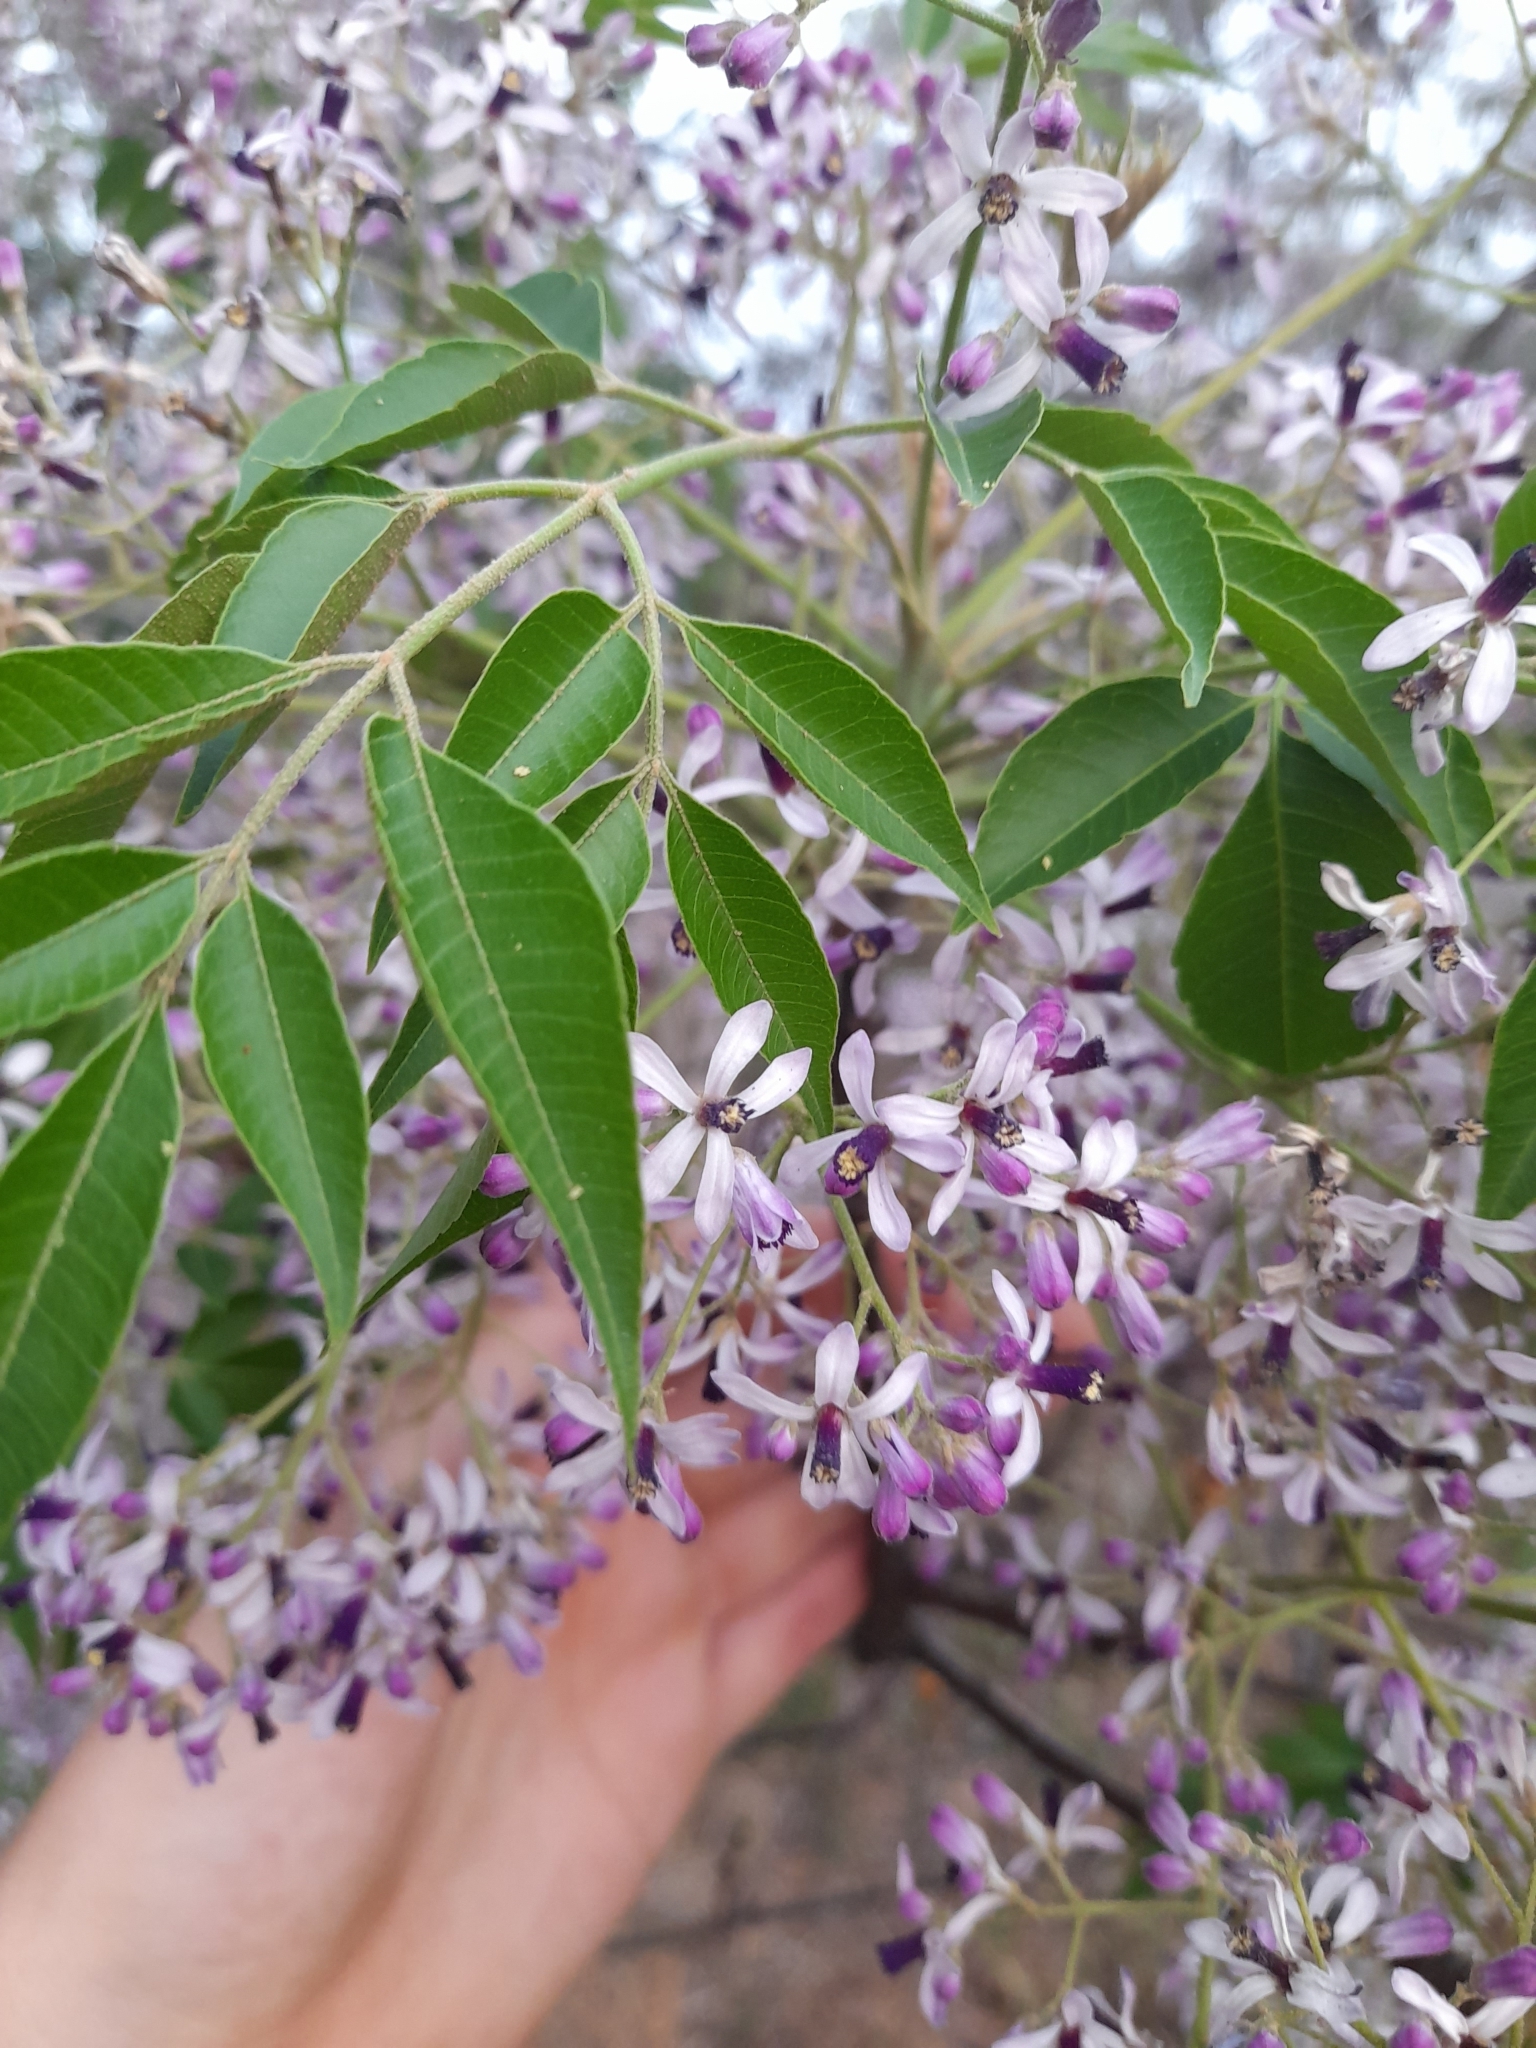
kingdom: Plantae
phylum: Tracheophyta
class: Magnoliopsida
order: Sapindales
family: Meliaceae
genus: Melia
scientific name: Melia azedarach
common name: Chinaberrytree
